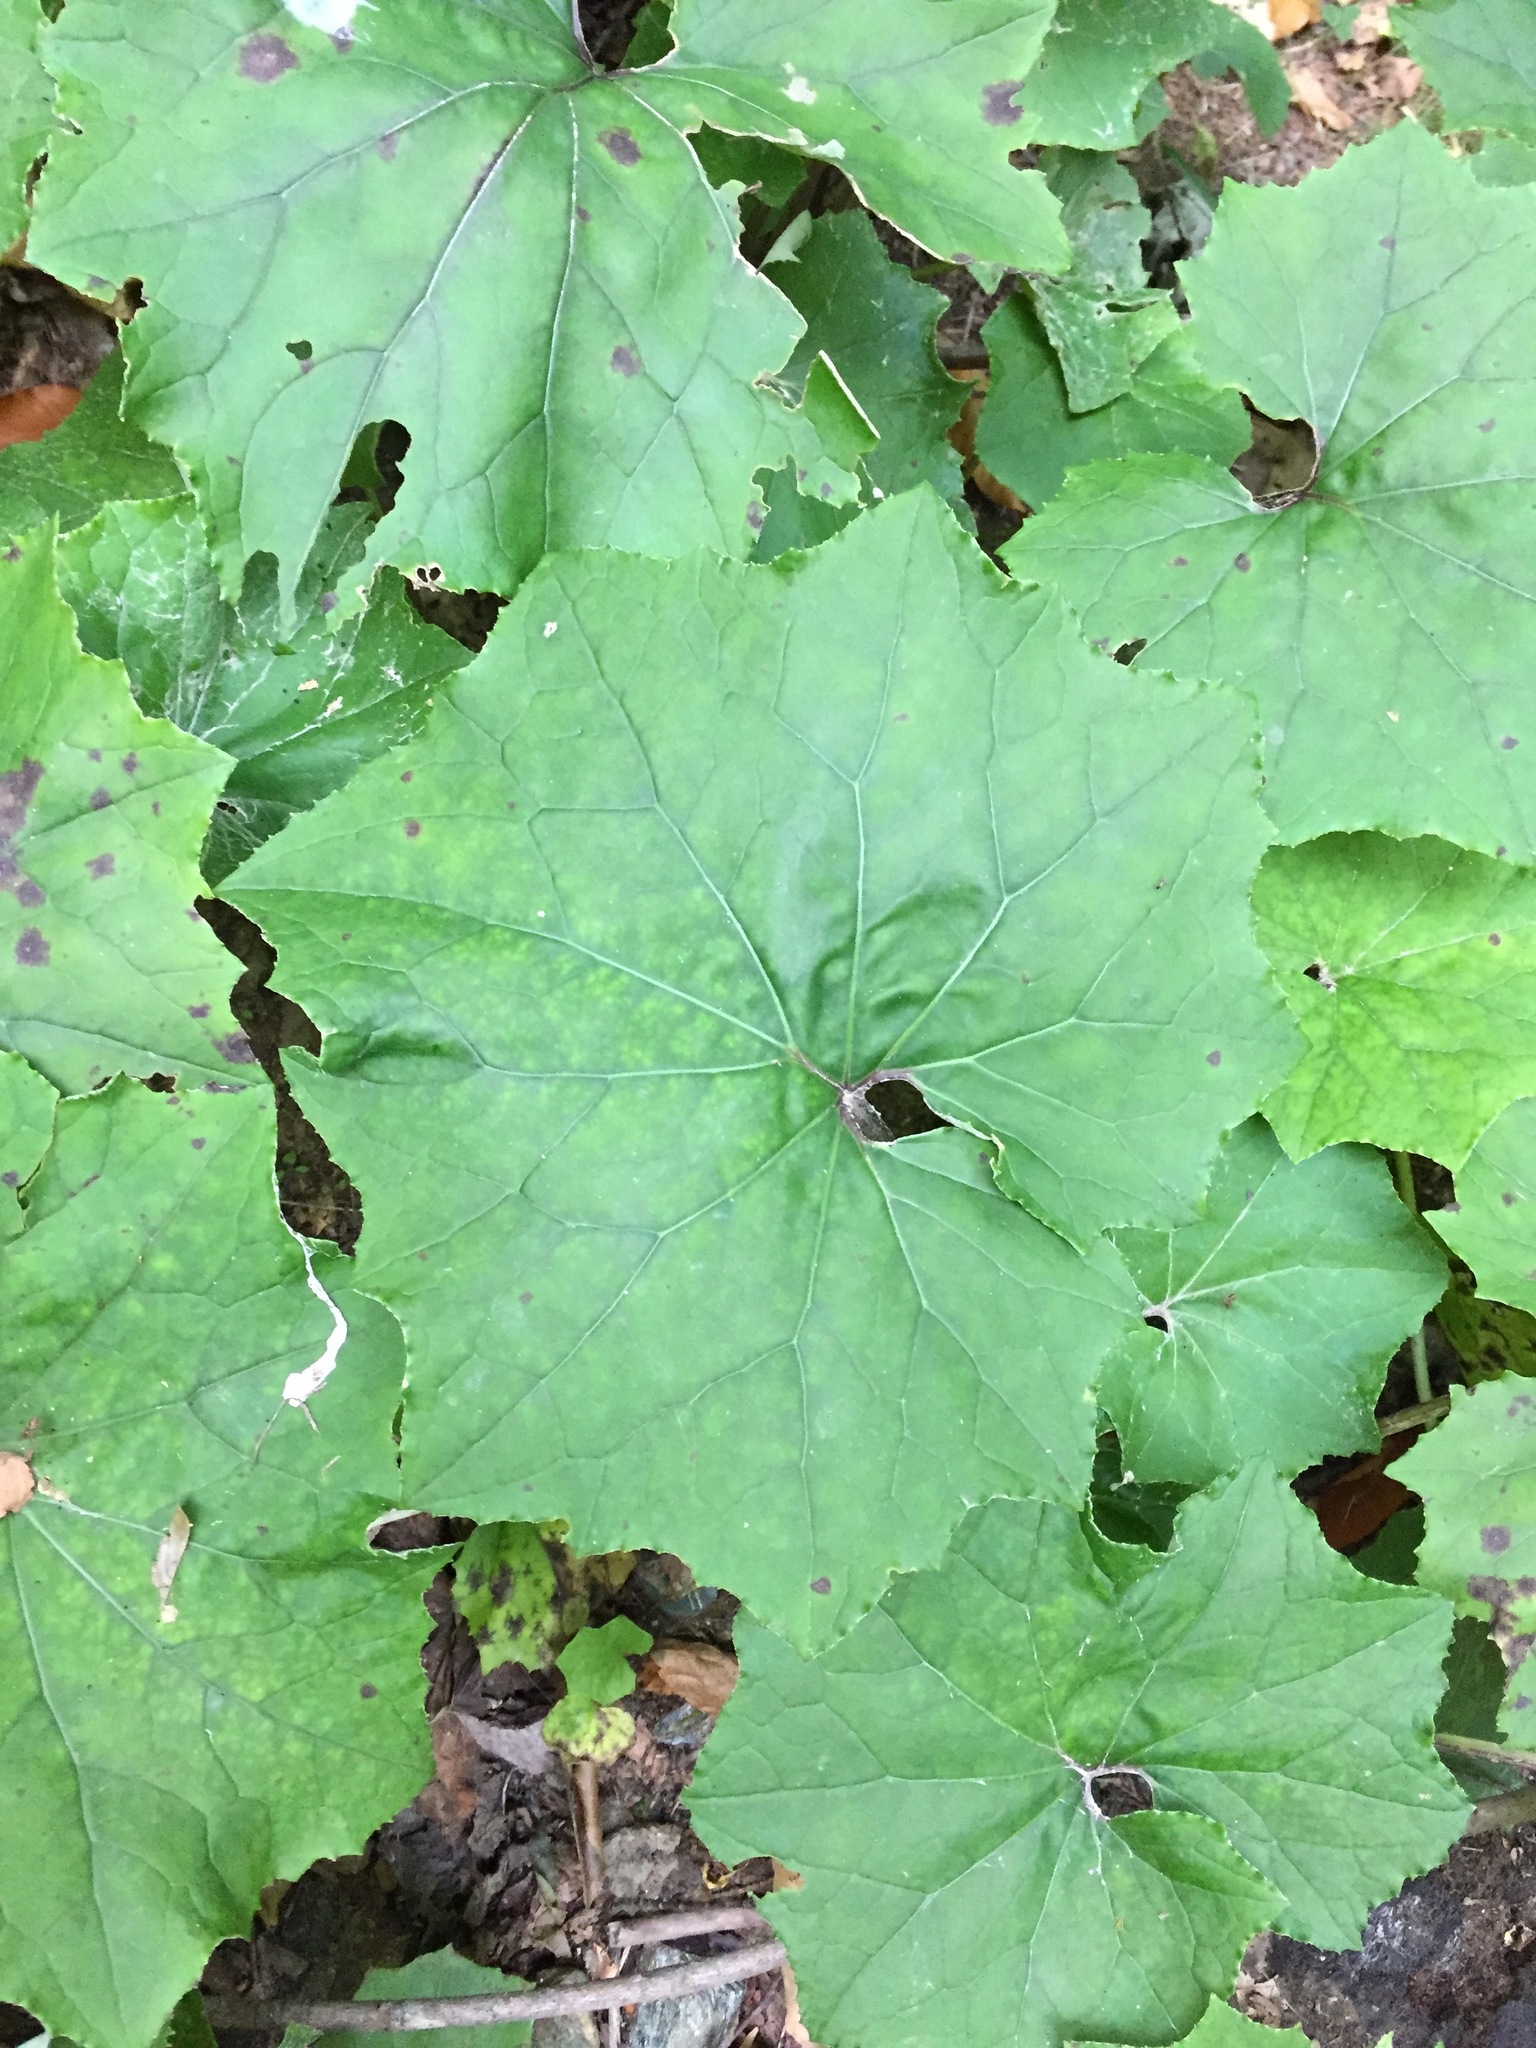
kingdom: Plantae
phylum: Tracheophyta
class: Magnoliopsida
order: Asterales
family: Asteraceae
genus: Tussilago
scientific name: Tussilago farfara
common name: Coltsfoot
